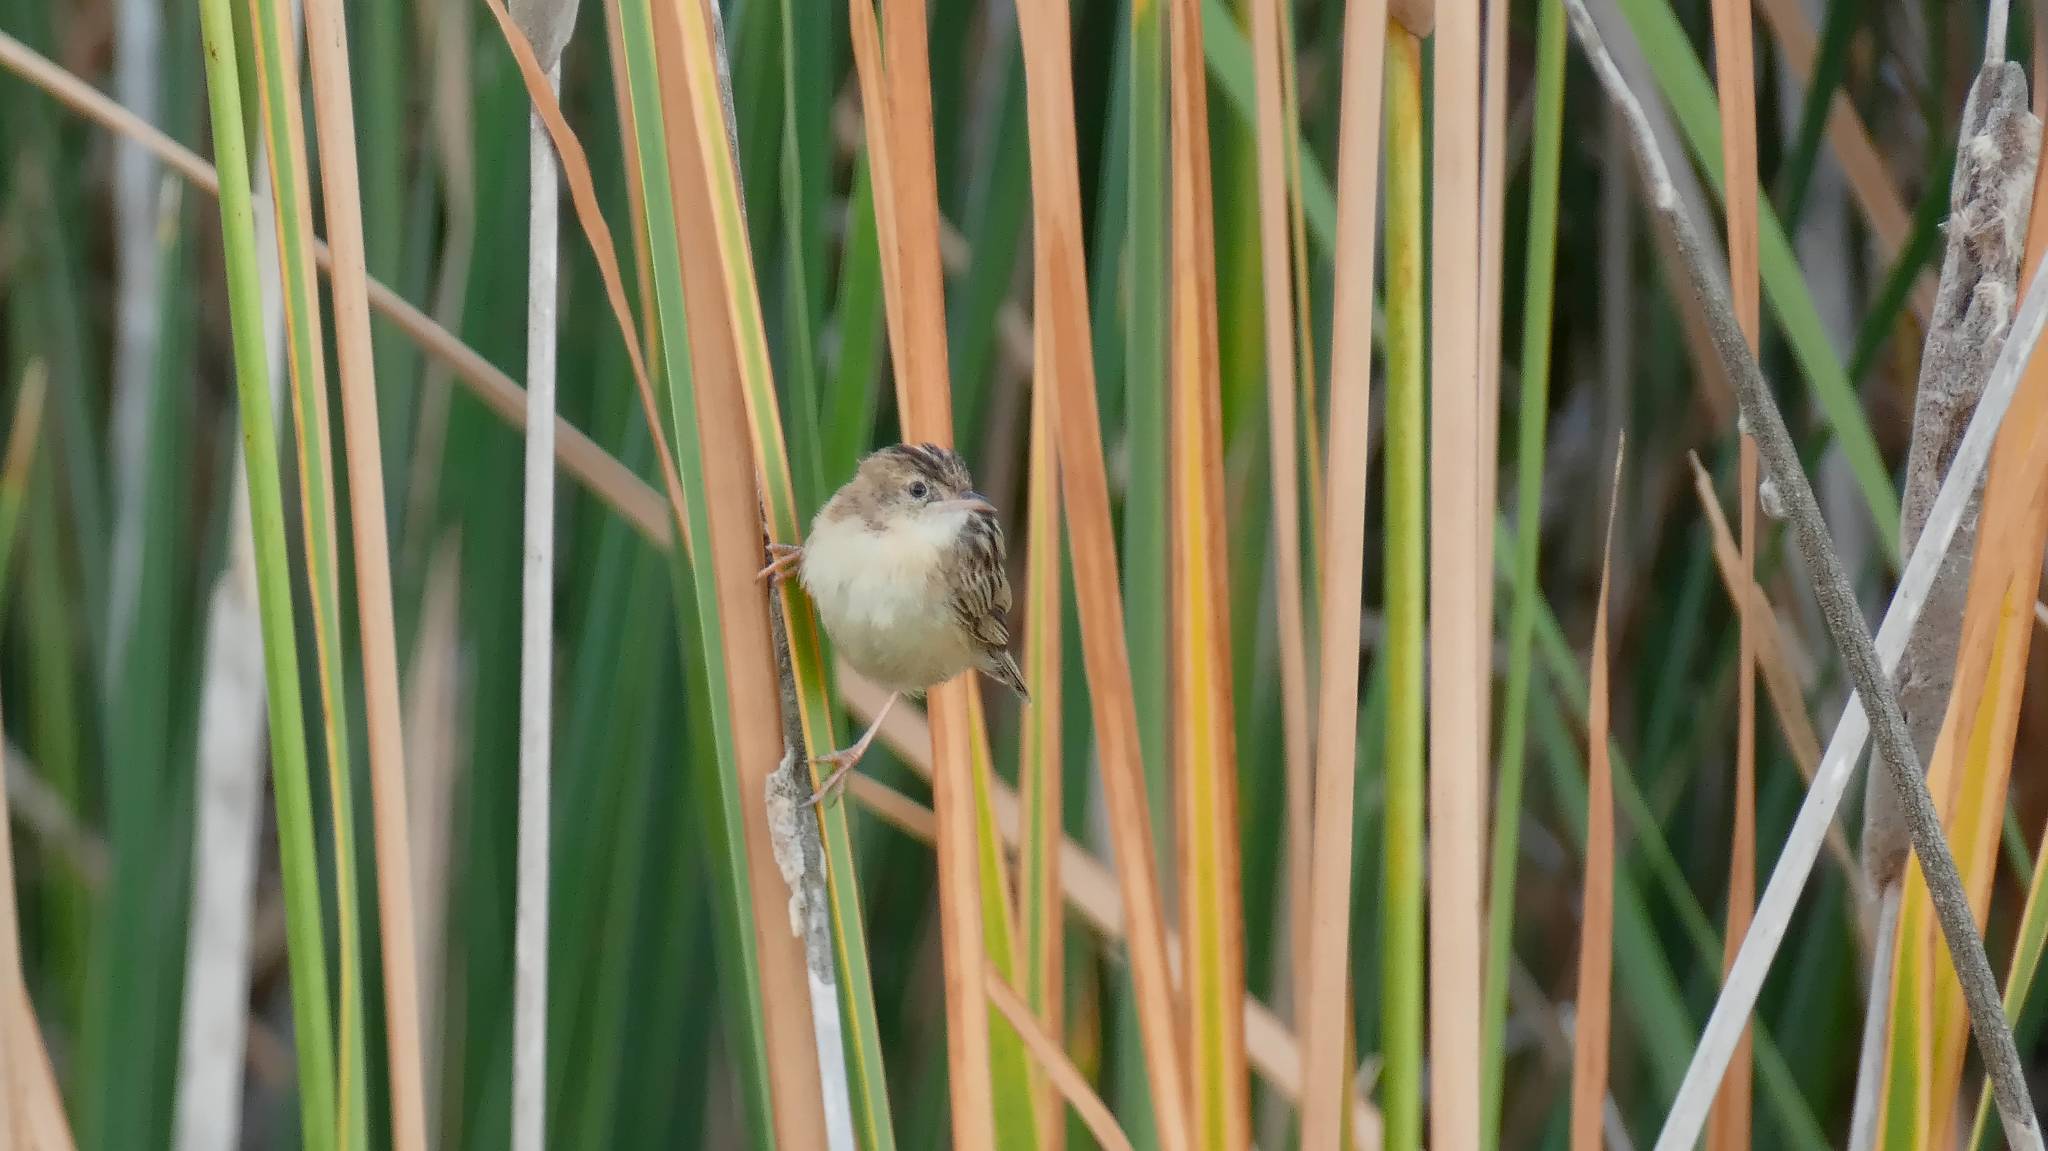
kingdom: Animalia
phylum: Chordata
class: Aves
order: Passeriformes
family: Cisticolidae
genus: Cisticola
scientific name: Cisticola juncidis
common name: Zitting cisticola
